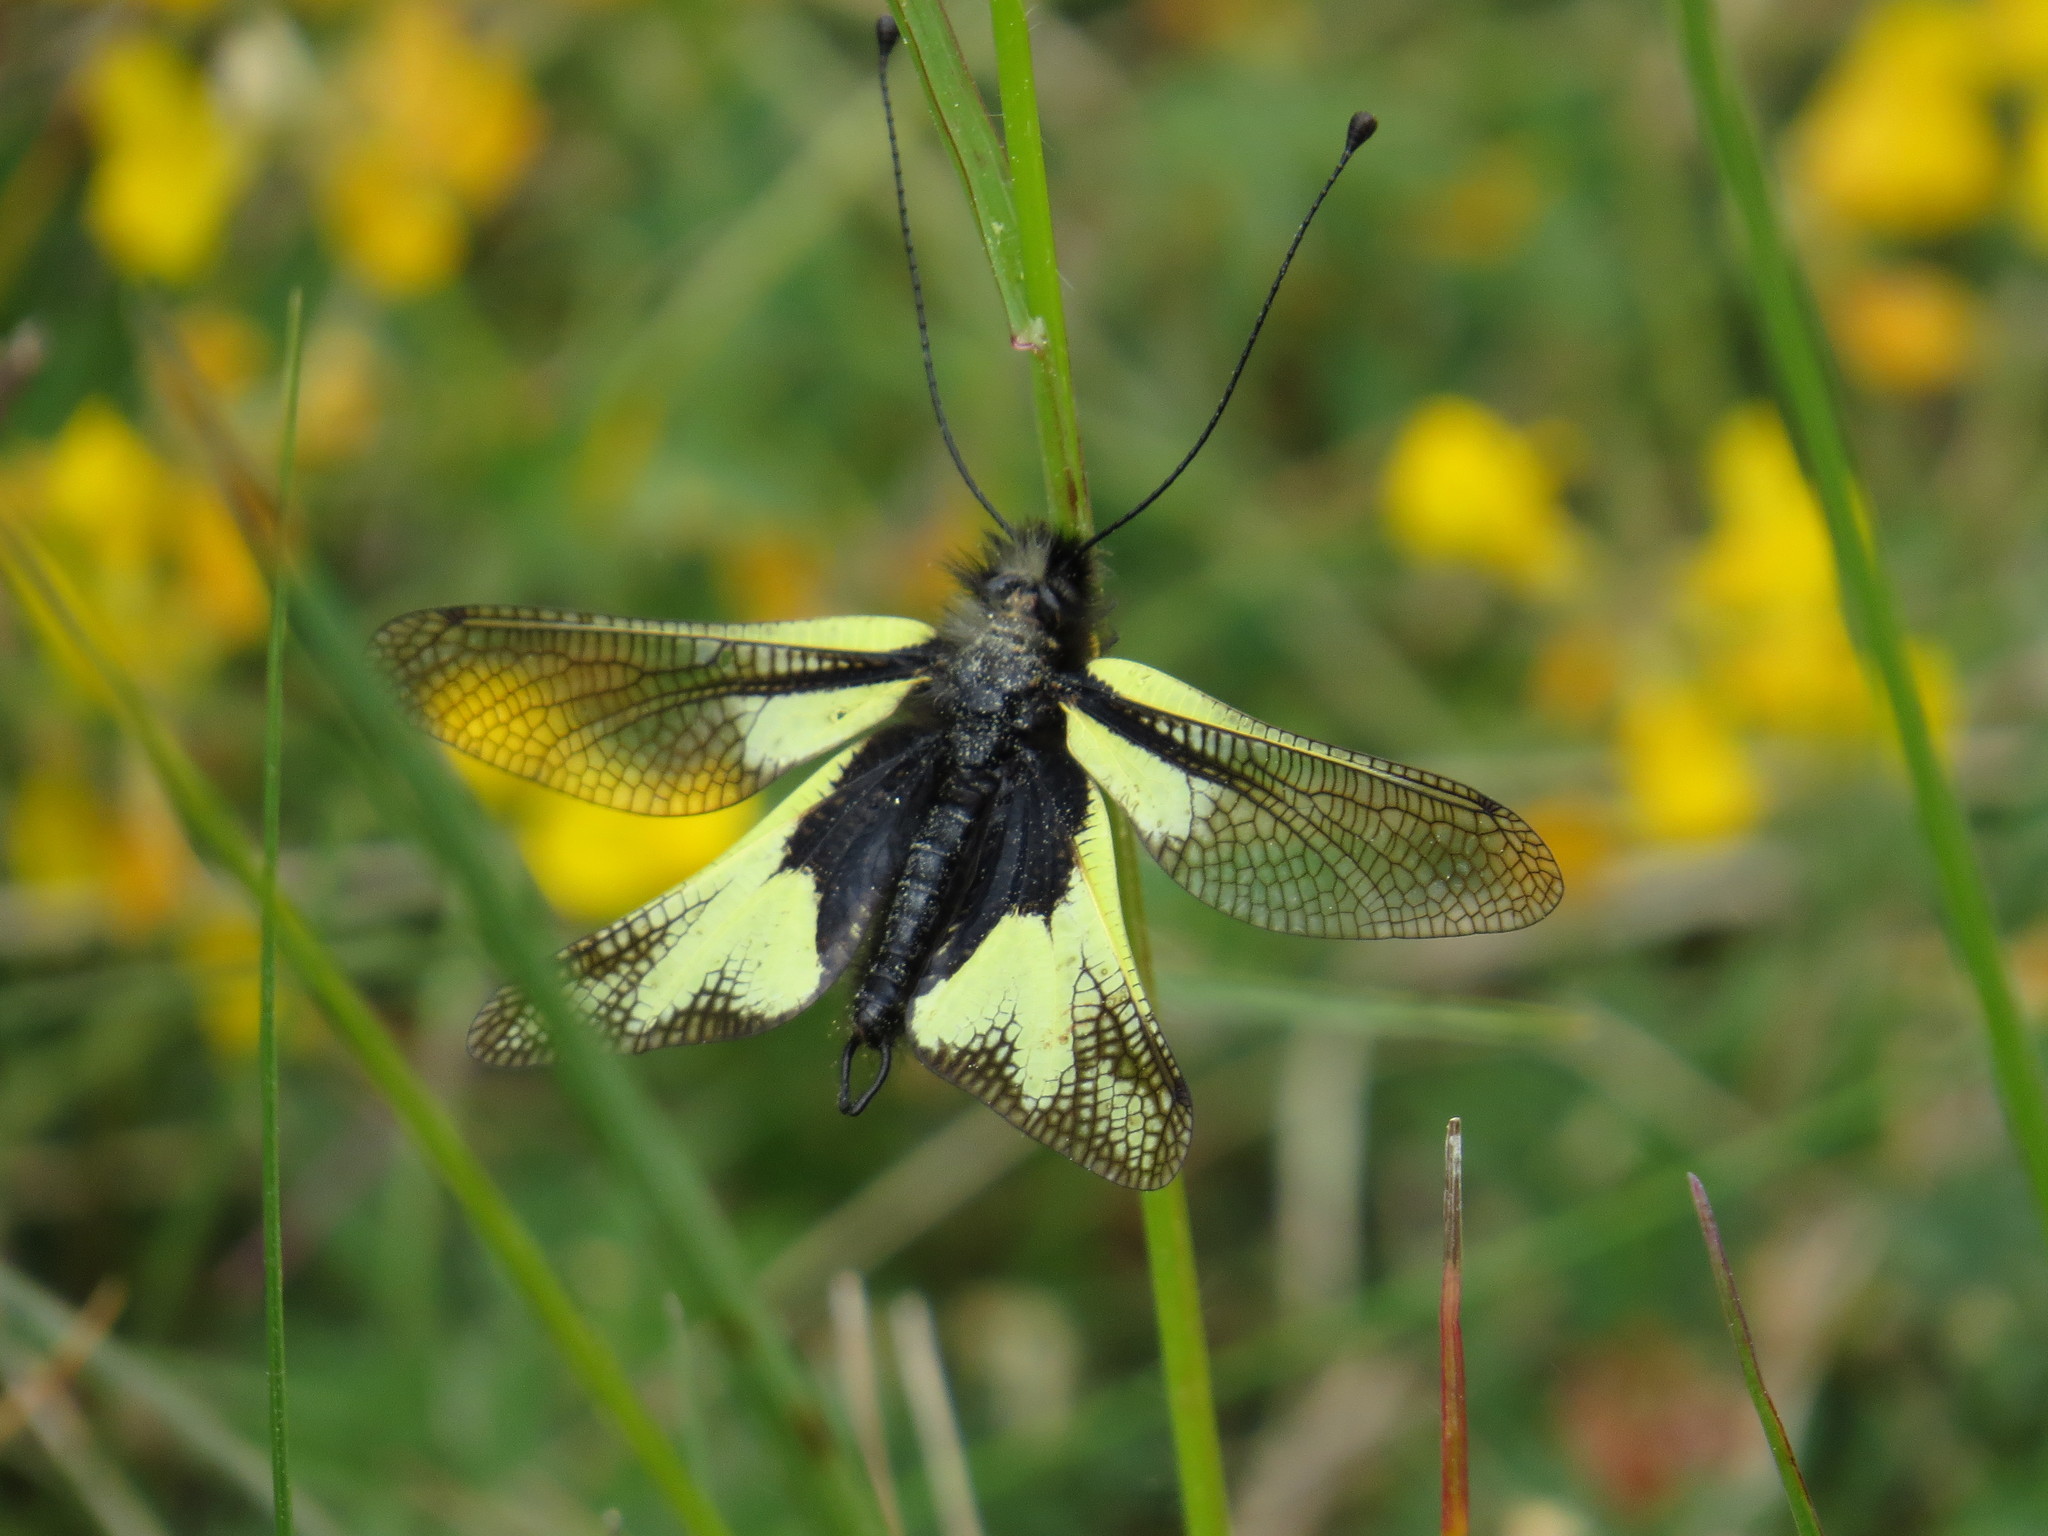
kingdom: Animalia
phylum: Arthropoda
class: Insecta
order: Neuroptera
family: Ascalaphidae
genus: Libelloides
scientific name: Libelloides coccajus
